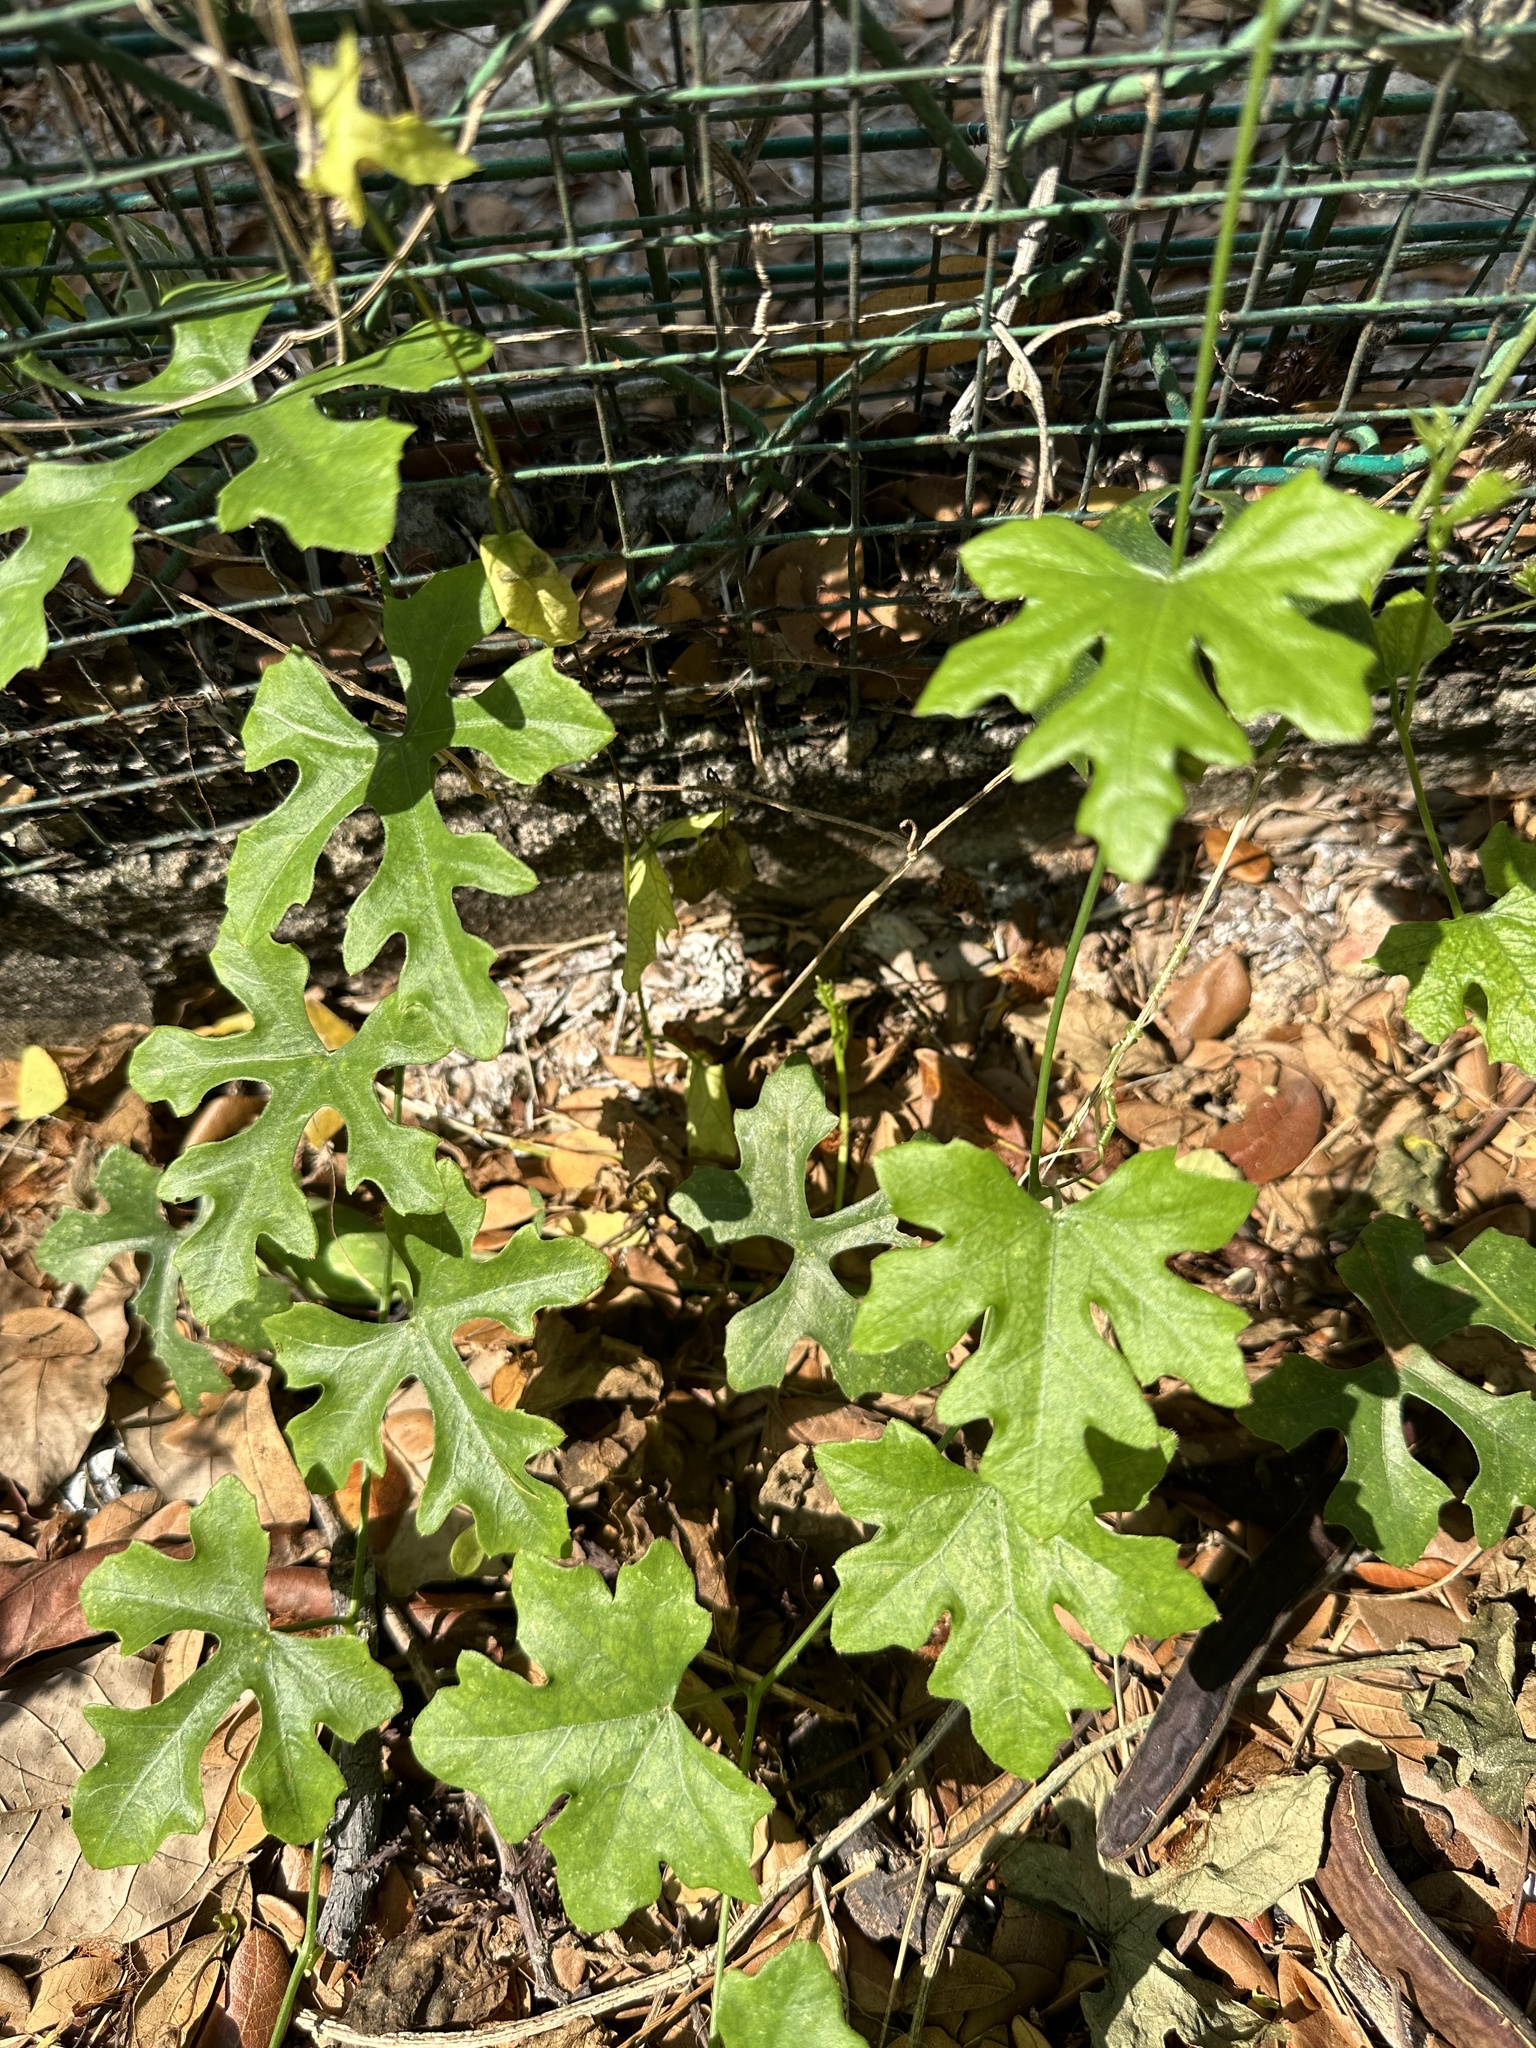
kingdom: Plantae
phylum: Tracheophyta
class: Magnoliopsida
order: Cucurbitales
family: Cucurbitaceae
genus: Coccinia
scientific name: Coccinia grandis
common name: Ivy gourd
